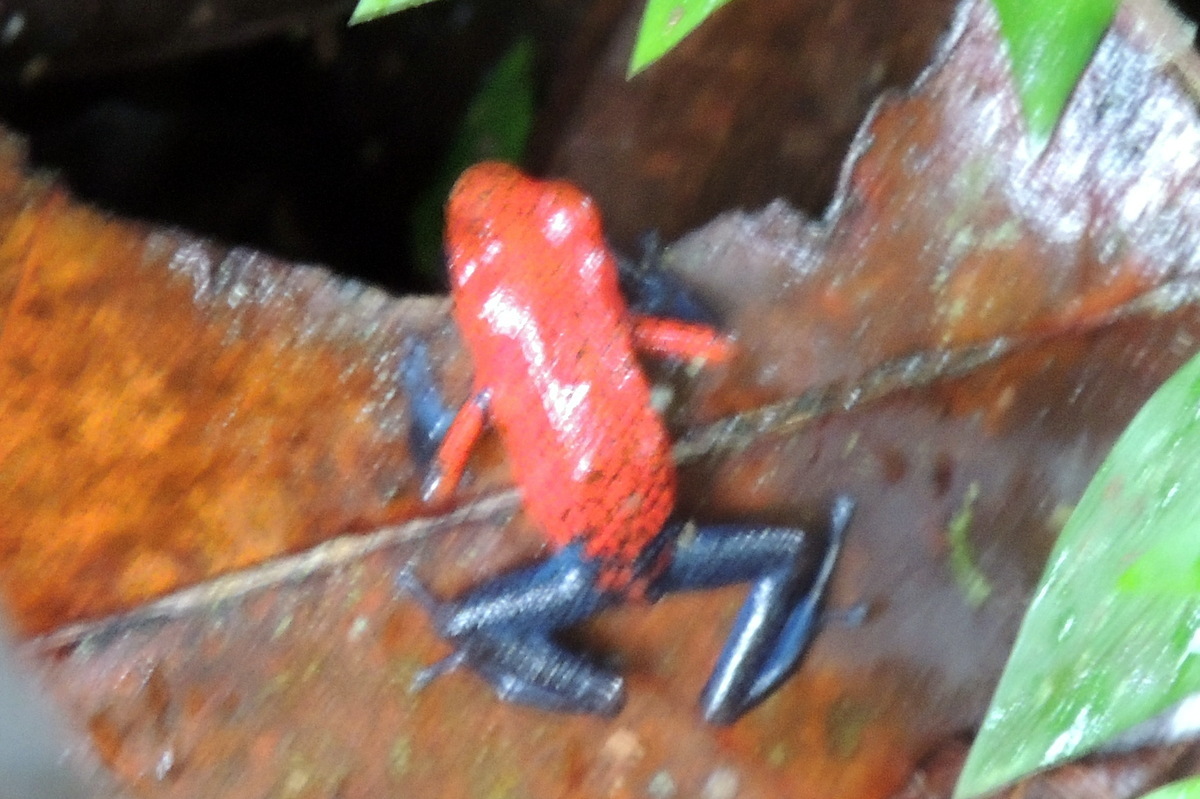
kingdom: Animalia
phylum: Chordata
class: Amphibia
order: Anura
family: Dendrobatidae
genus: Oophaga
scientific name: Oophaga pumilio
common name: Flaming poison frog
